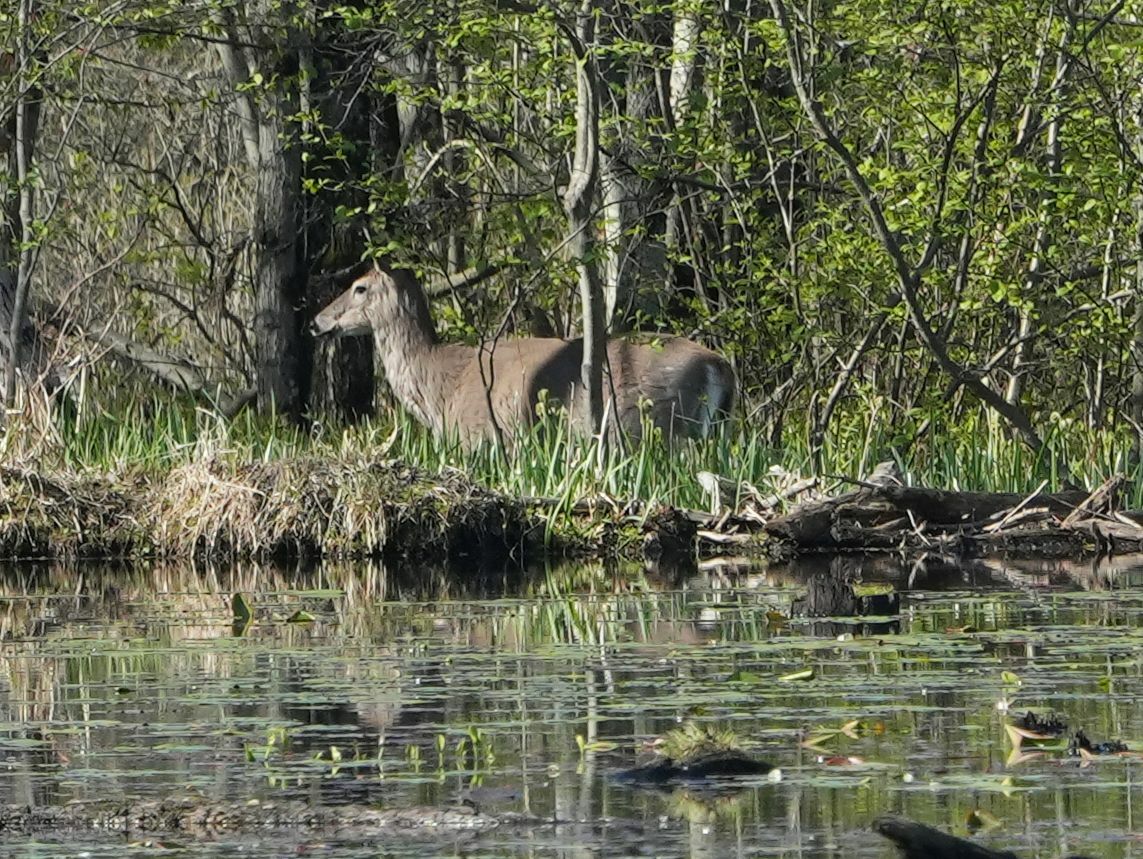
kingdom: Animalia
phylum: Chordata
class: Mammalia
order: Artiodactyla
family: Cervidae
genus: Odocoileus
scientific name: Odocoileus virginianus
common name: White-tailed deer
